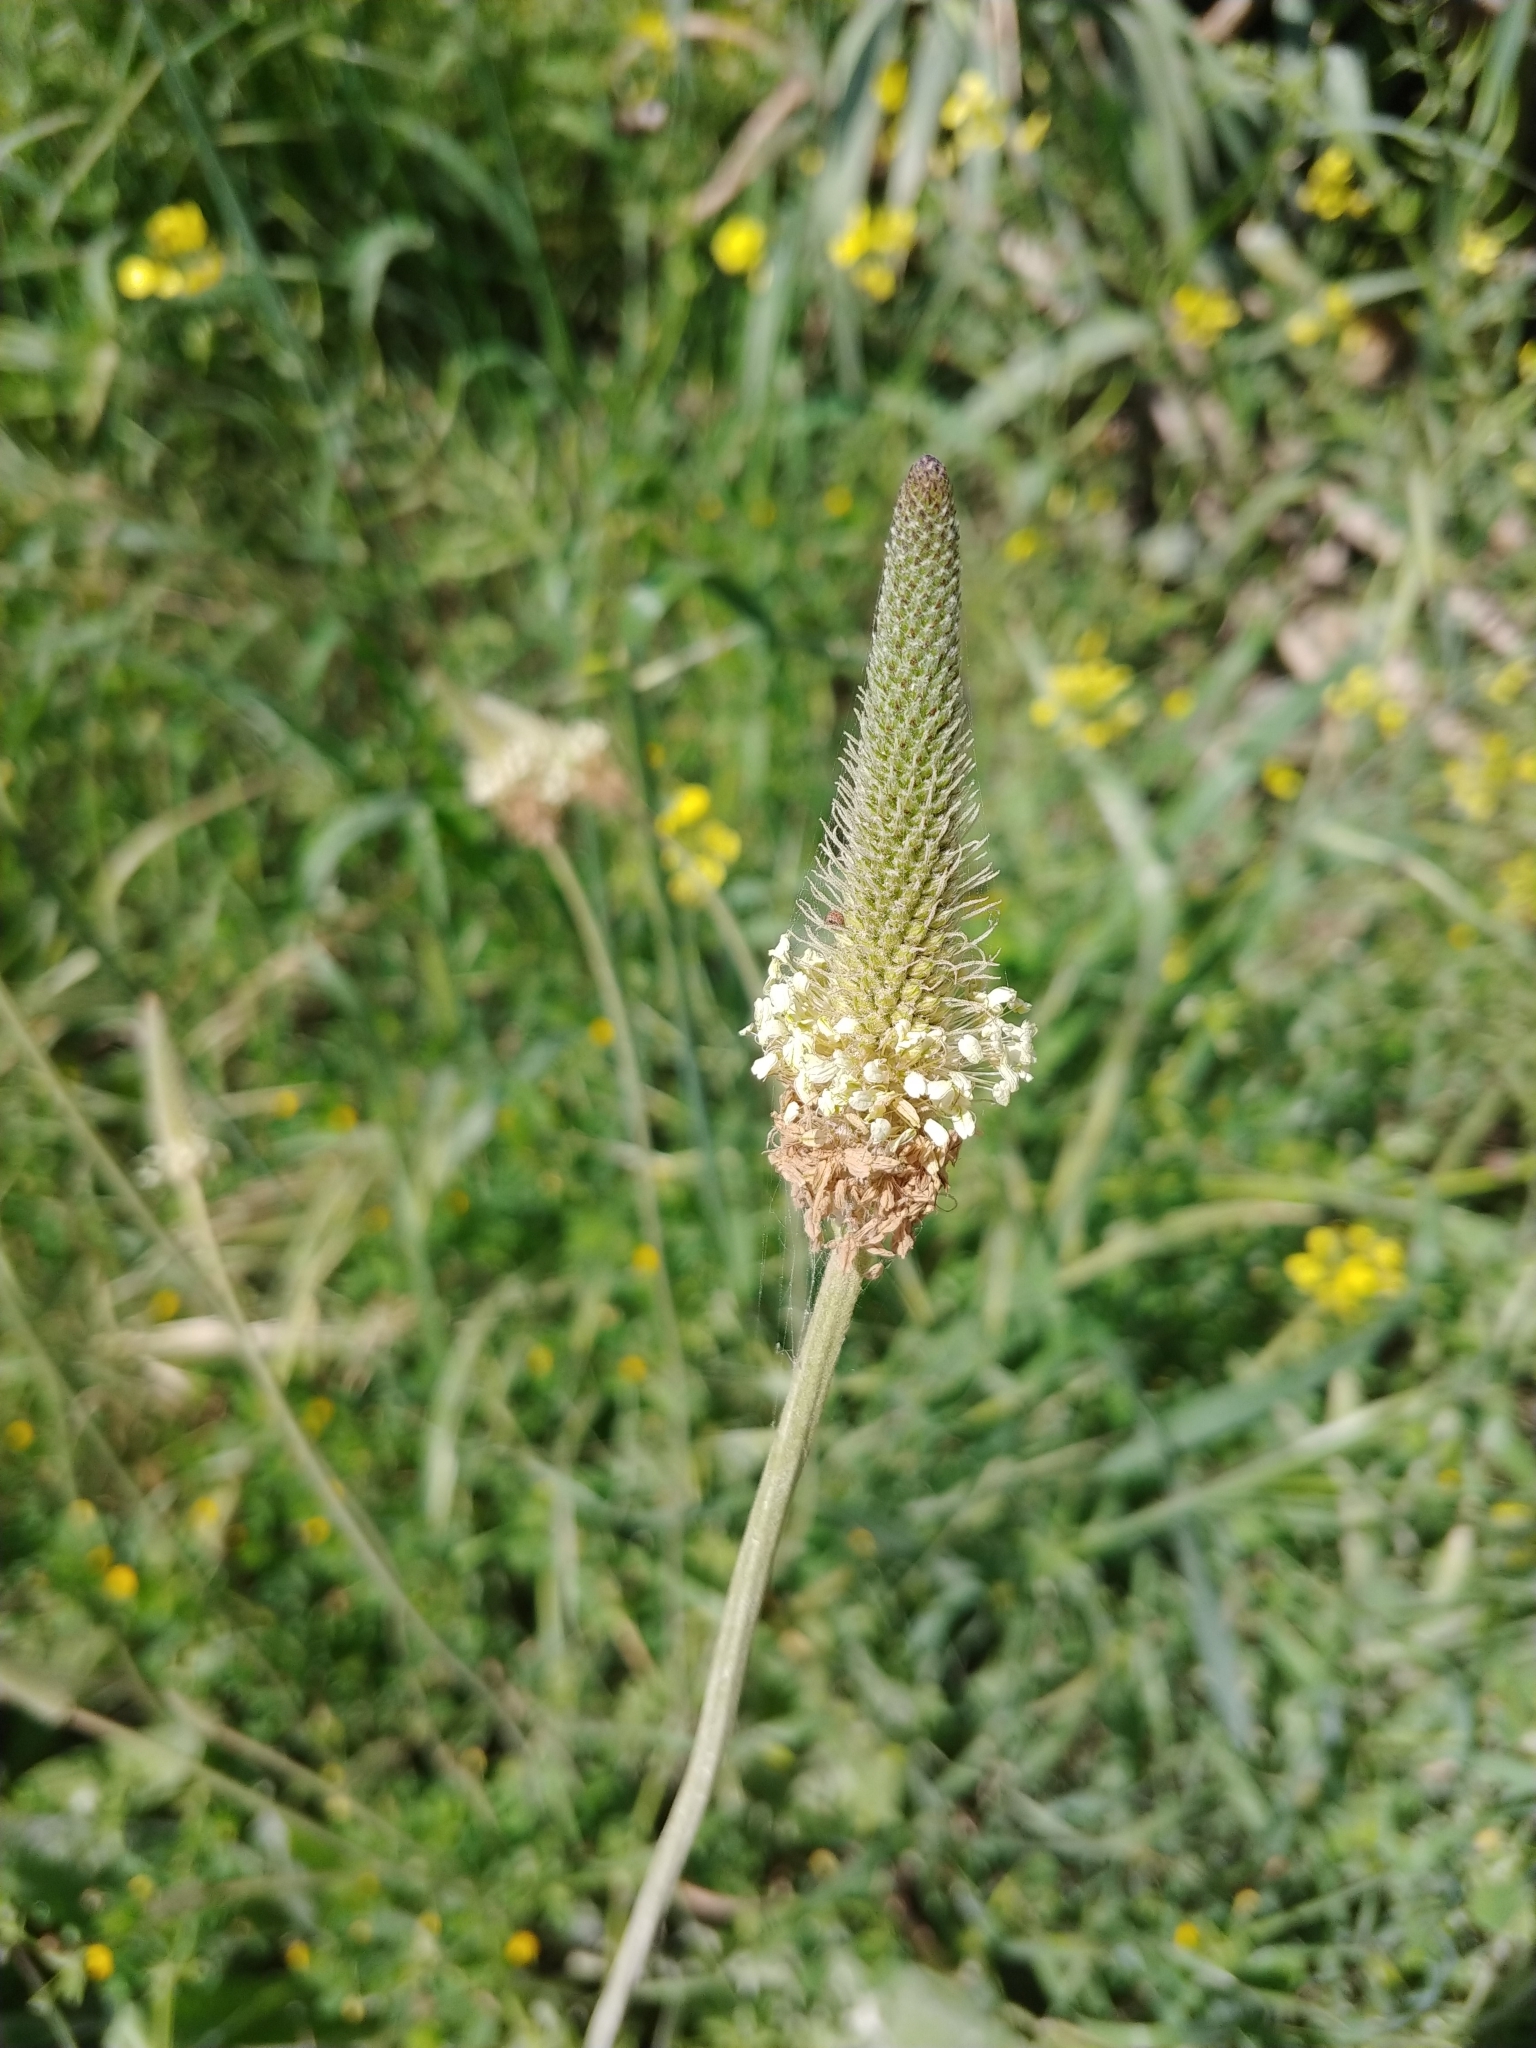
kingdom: Plantae
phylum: Tracheophyta
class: Magnoliopsida
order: Lamiales
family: Plantaginaceae
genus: Plantago
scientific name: Plantago lanceolata
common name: Ribwort plantain
